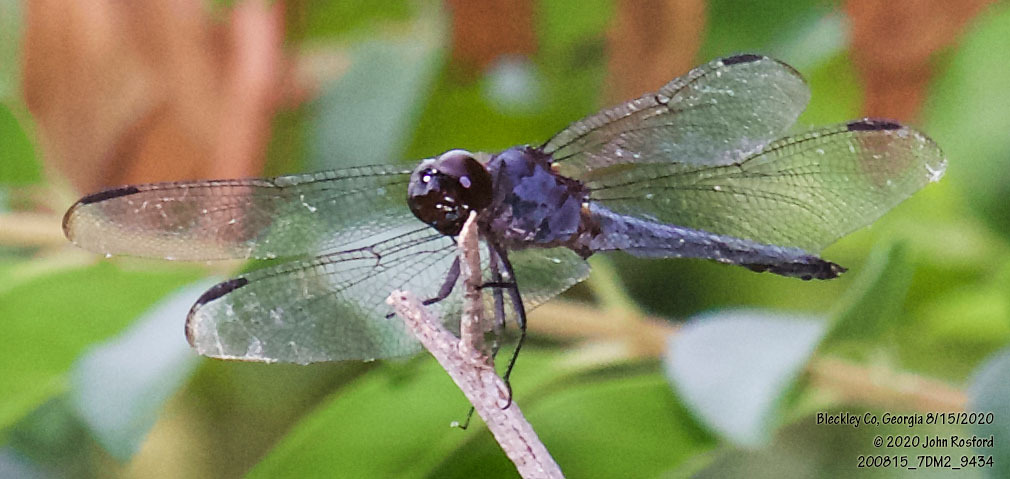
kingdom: Animalia
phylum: Arthropoda
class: Insecta
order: Odonata
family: Libellulidae
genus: Libellula
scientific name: Libellula incesta
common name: Slaty skimmer
